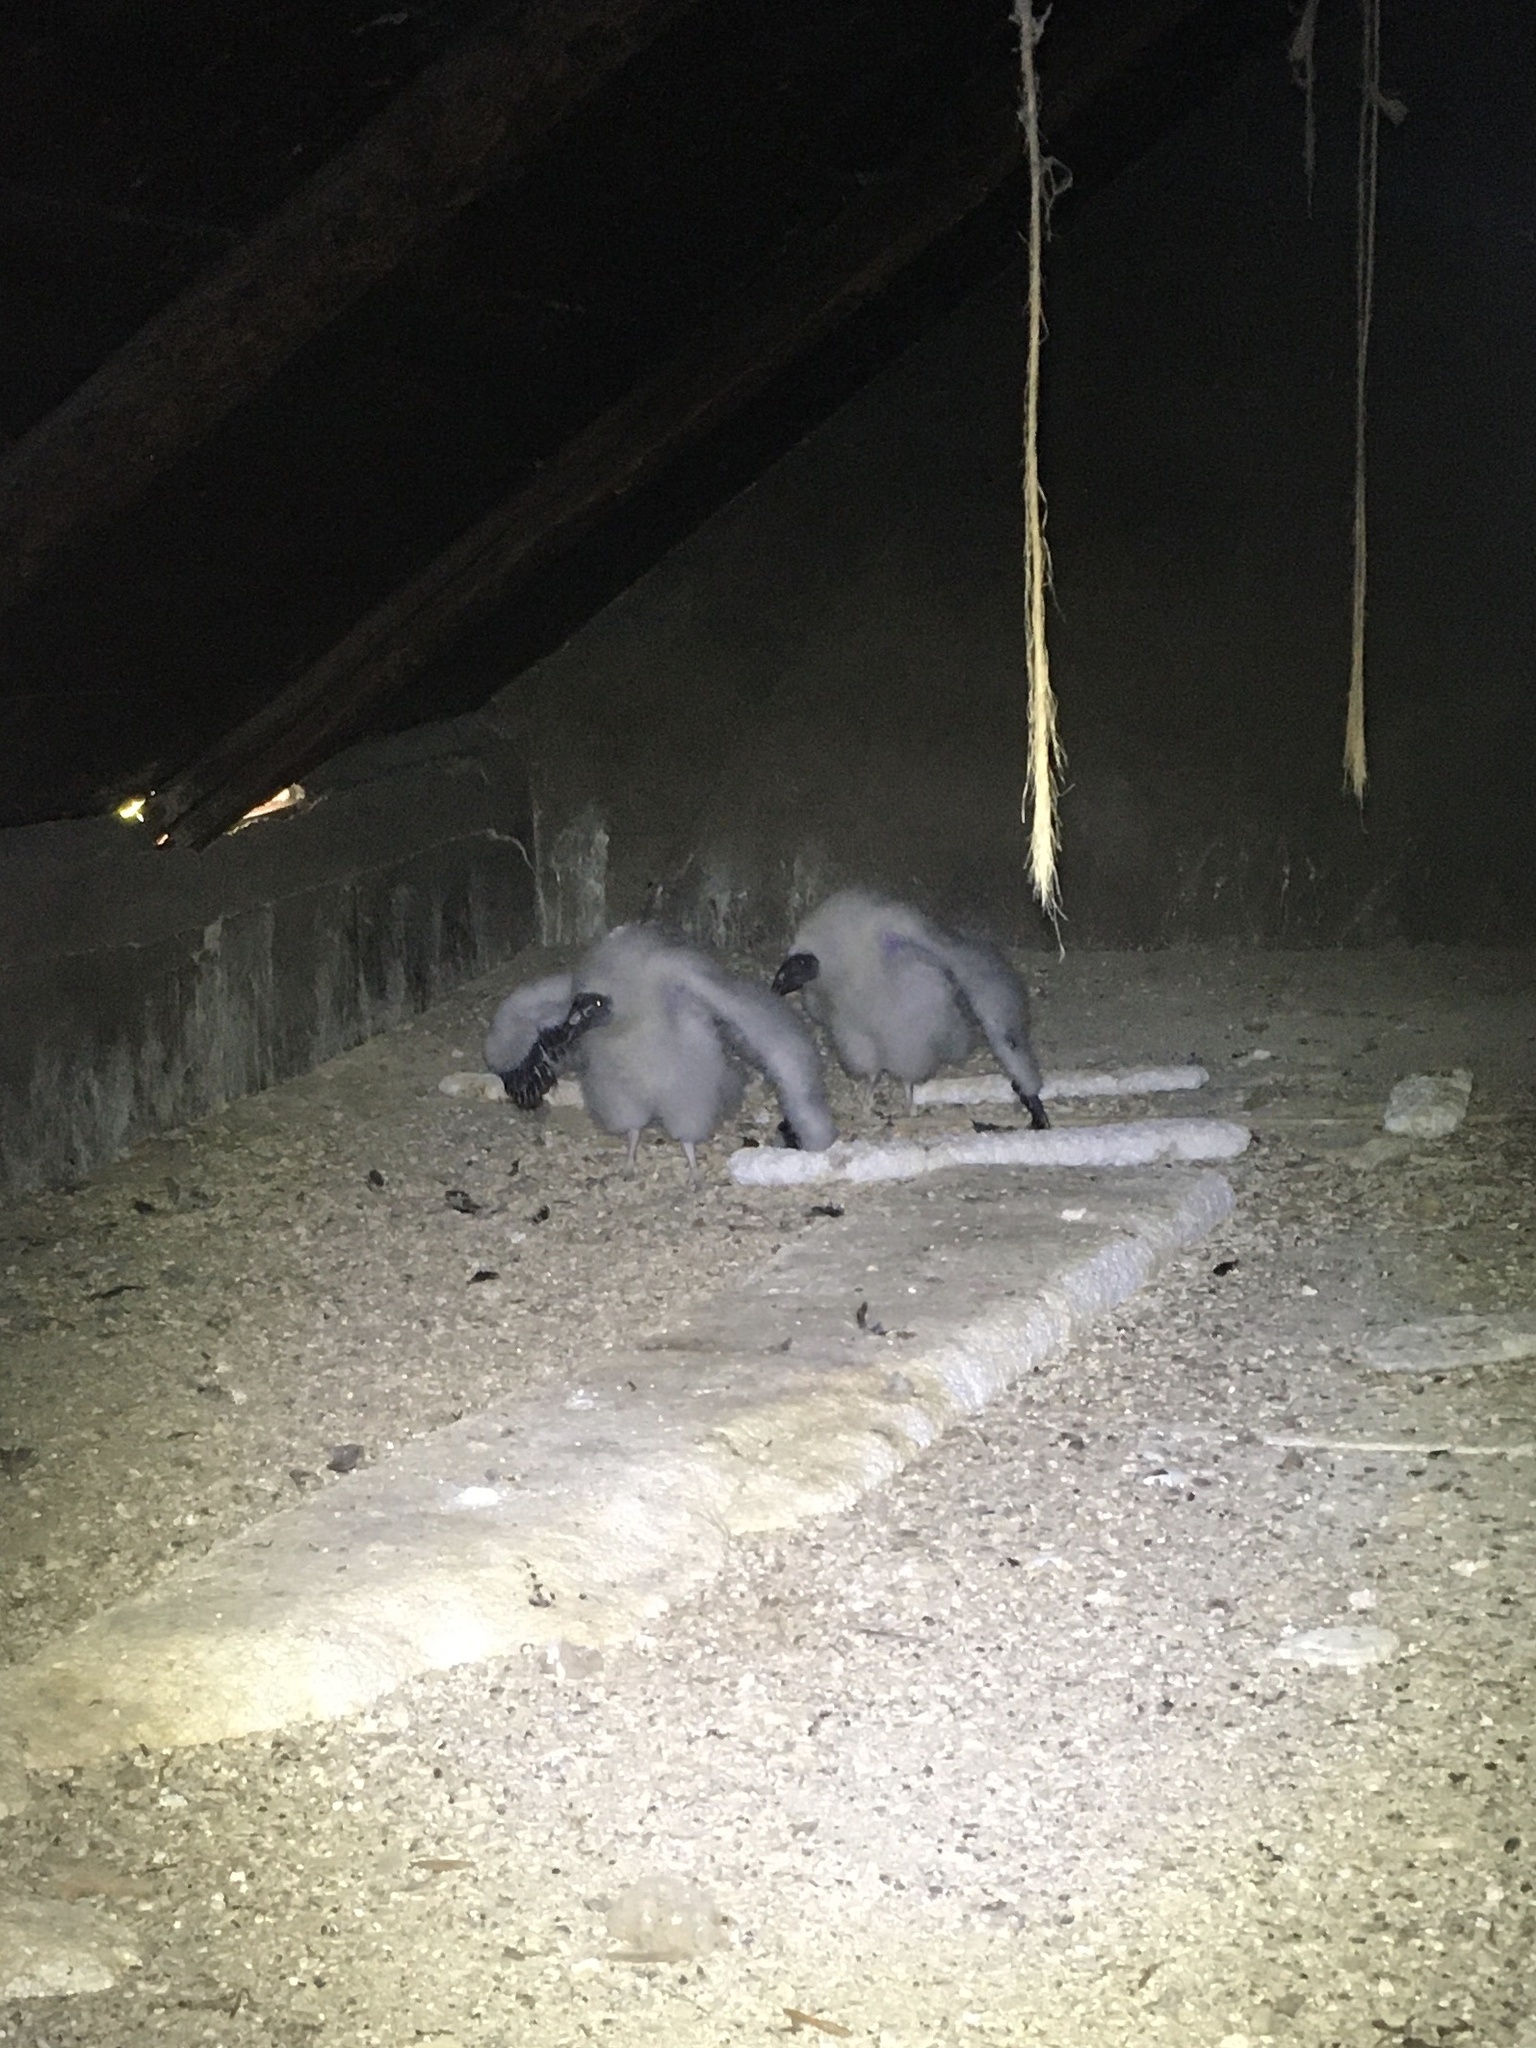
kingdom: Animalia
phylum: Chordata
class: Aves
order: Accipitriformes
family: Cathartidae
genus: Cathartes
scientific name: Cathartes aura
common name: Turkey vulture
